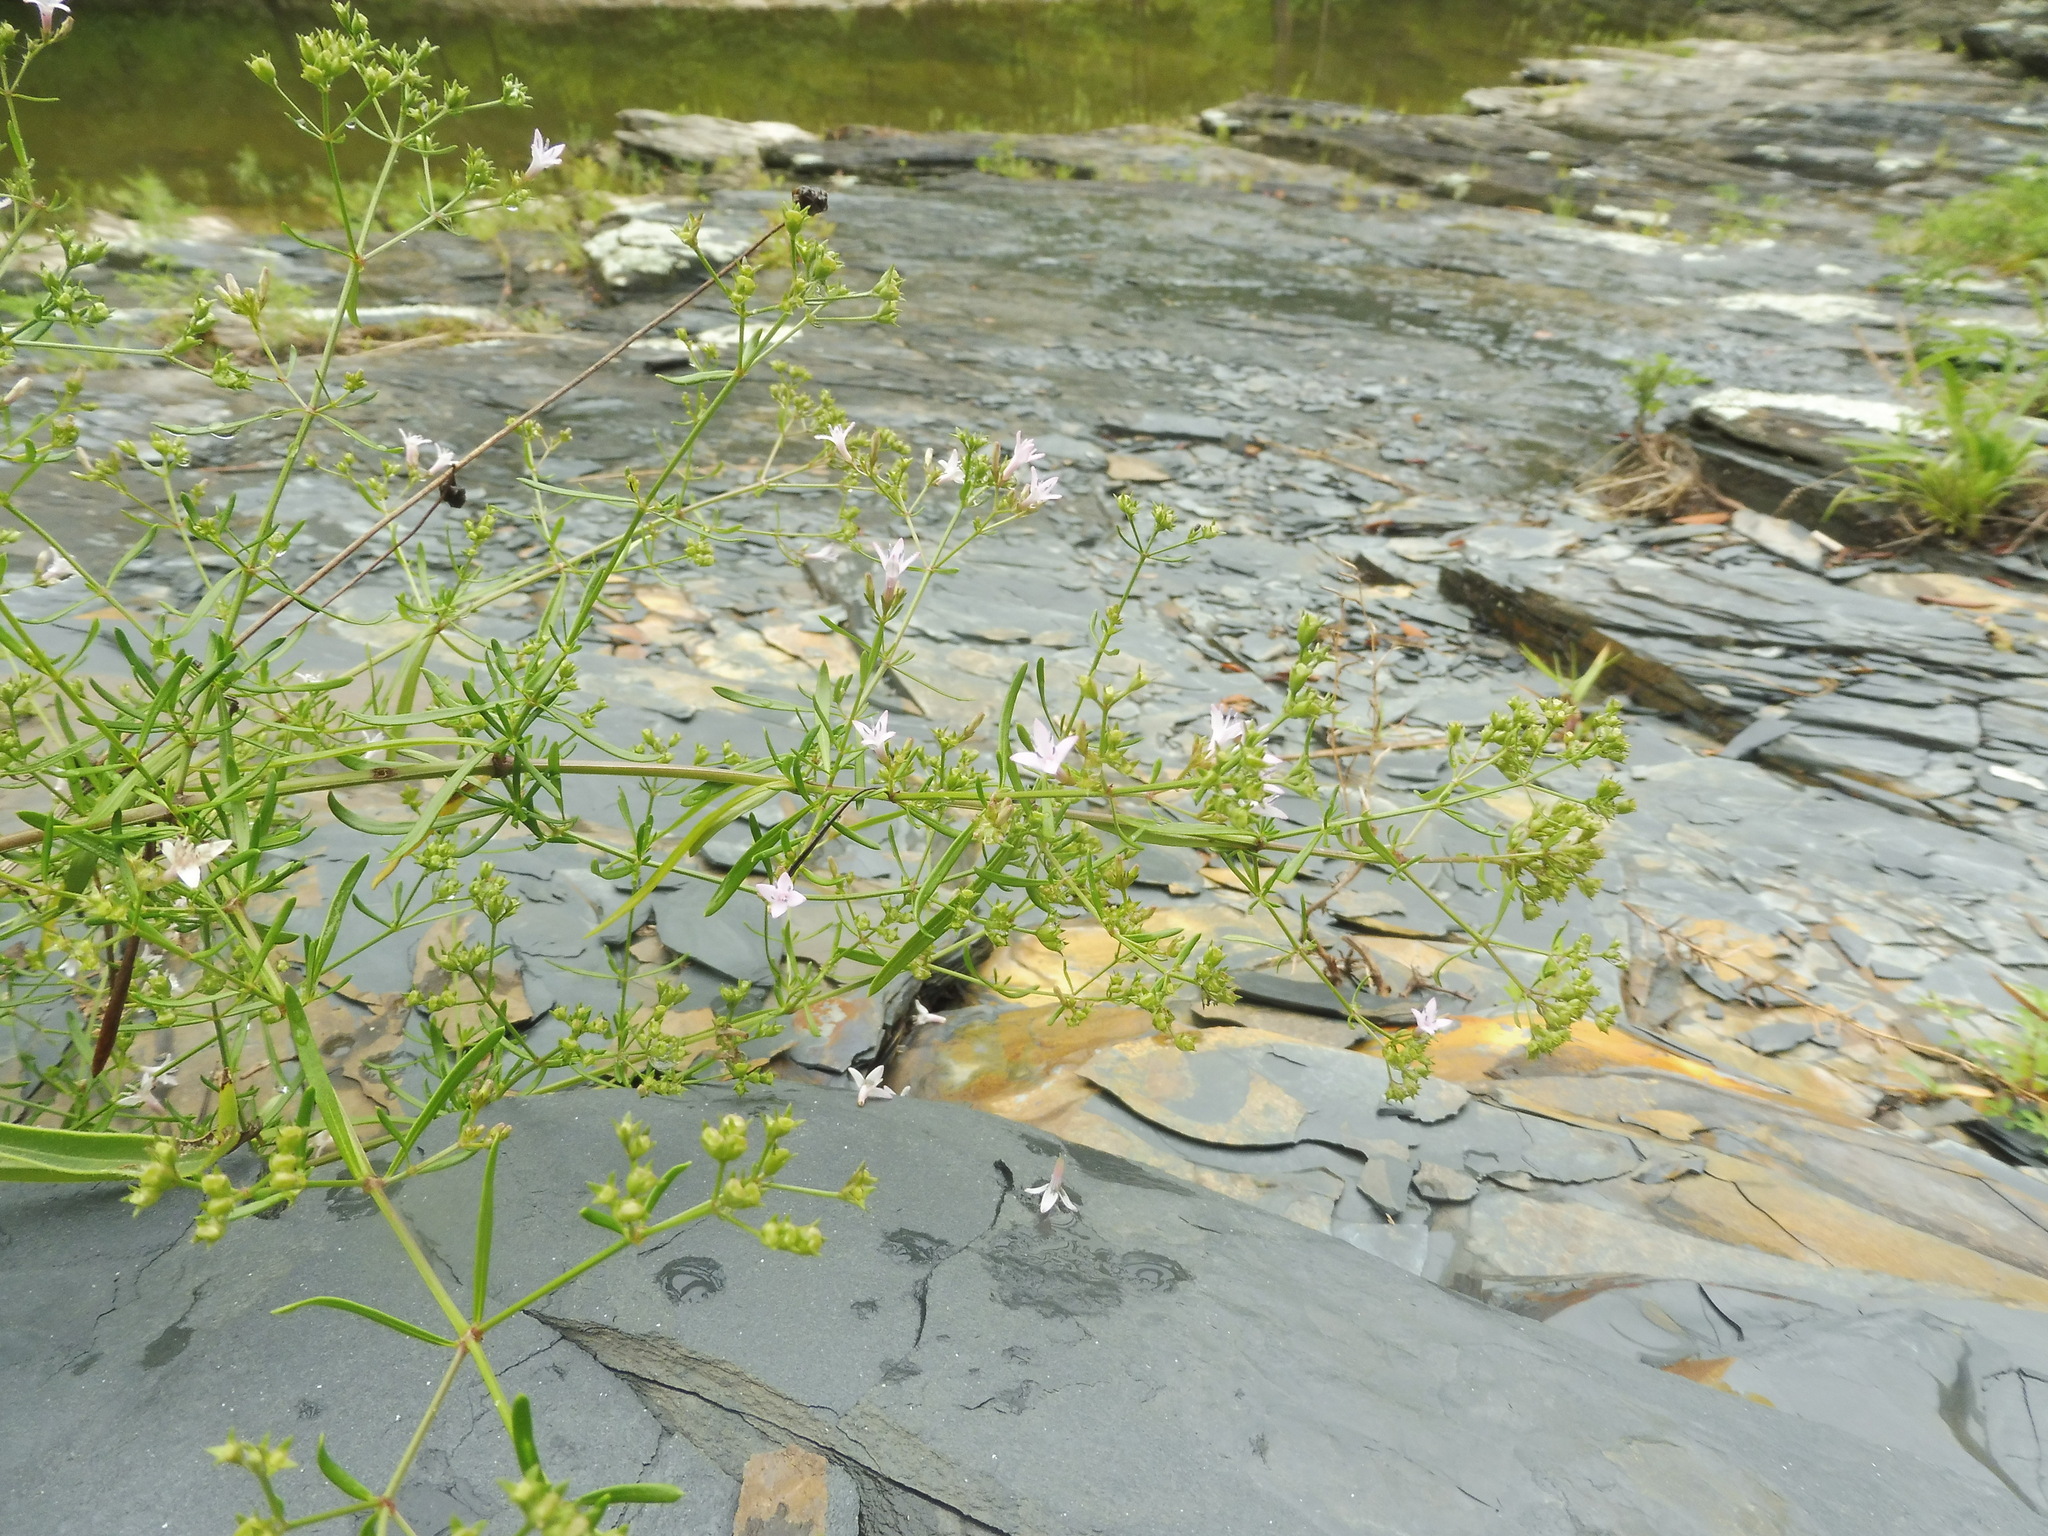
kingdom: Plantae
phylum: Tracheophyta
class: Magnoliopsida
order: Gentianales
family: Rubiaceae
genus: Stenaria
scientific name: Stenaria nigricans
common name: Diamondflowers
